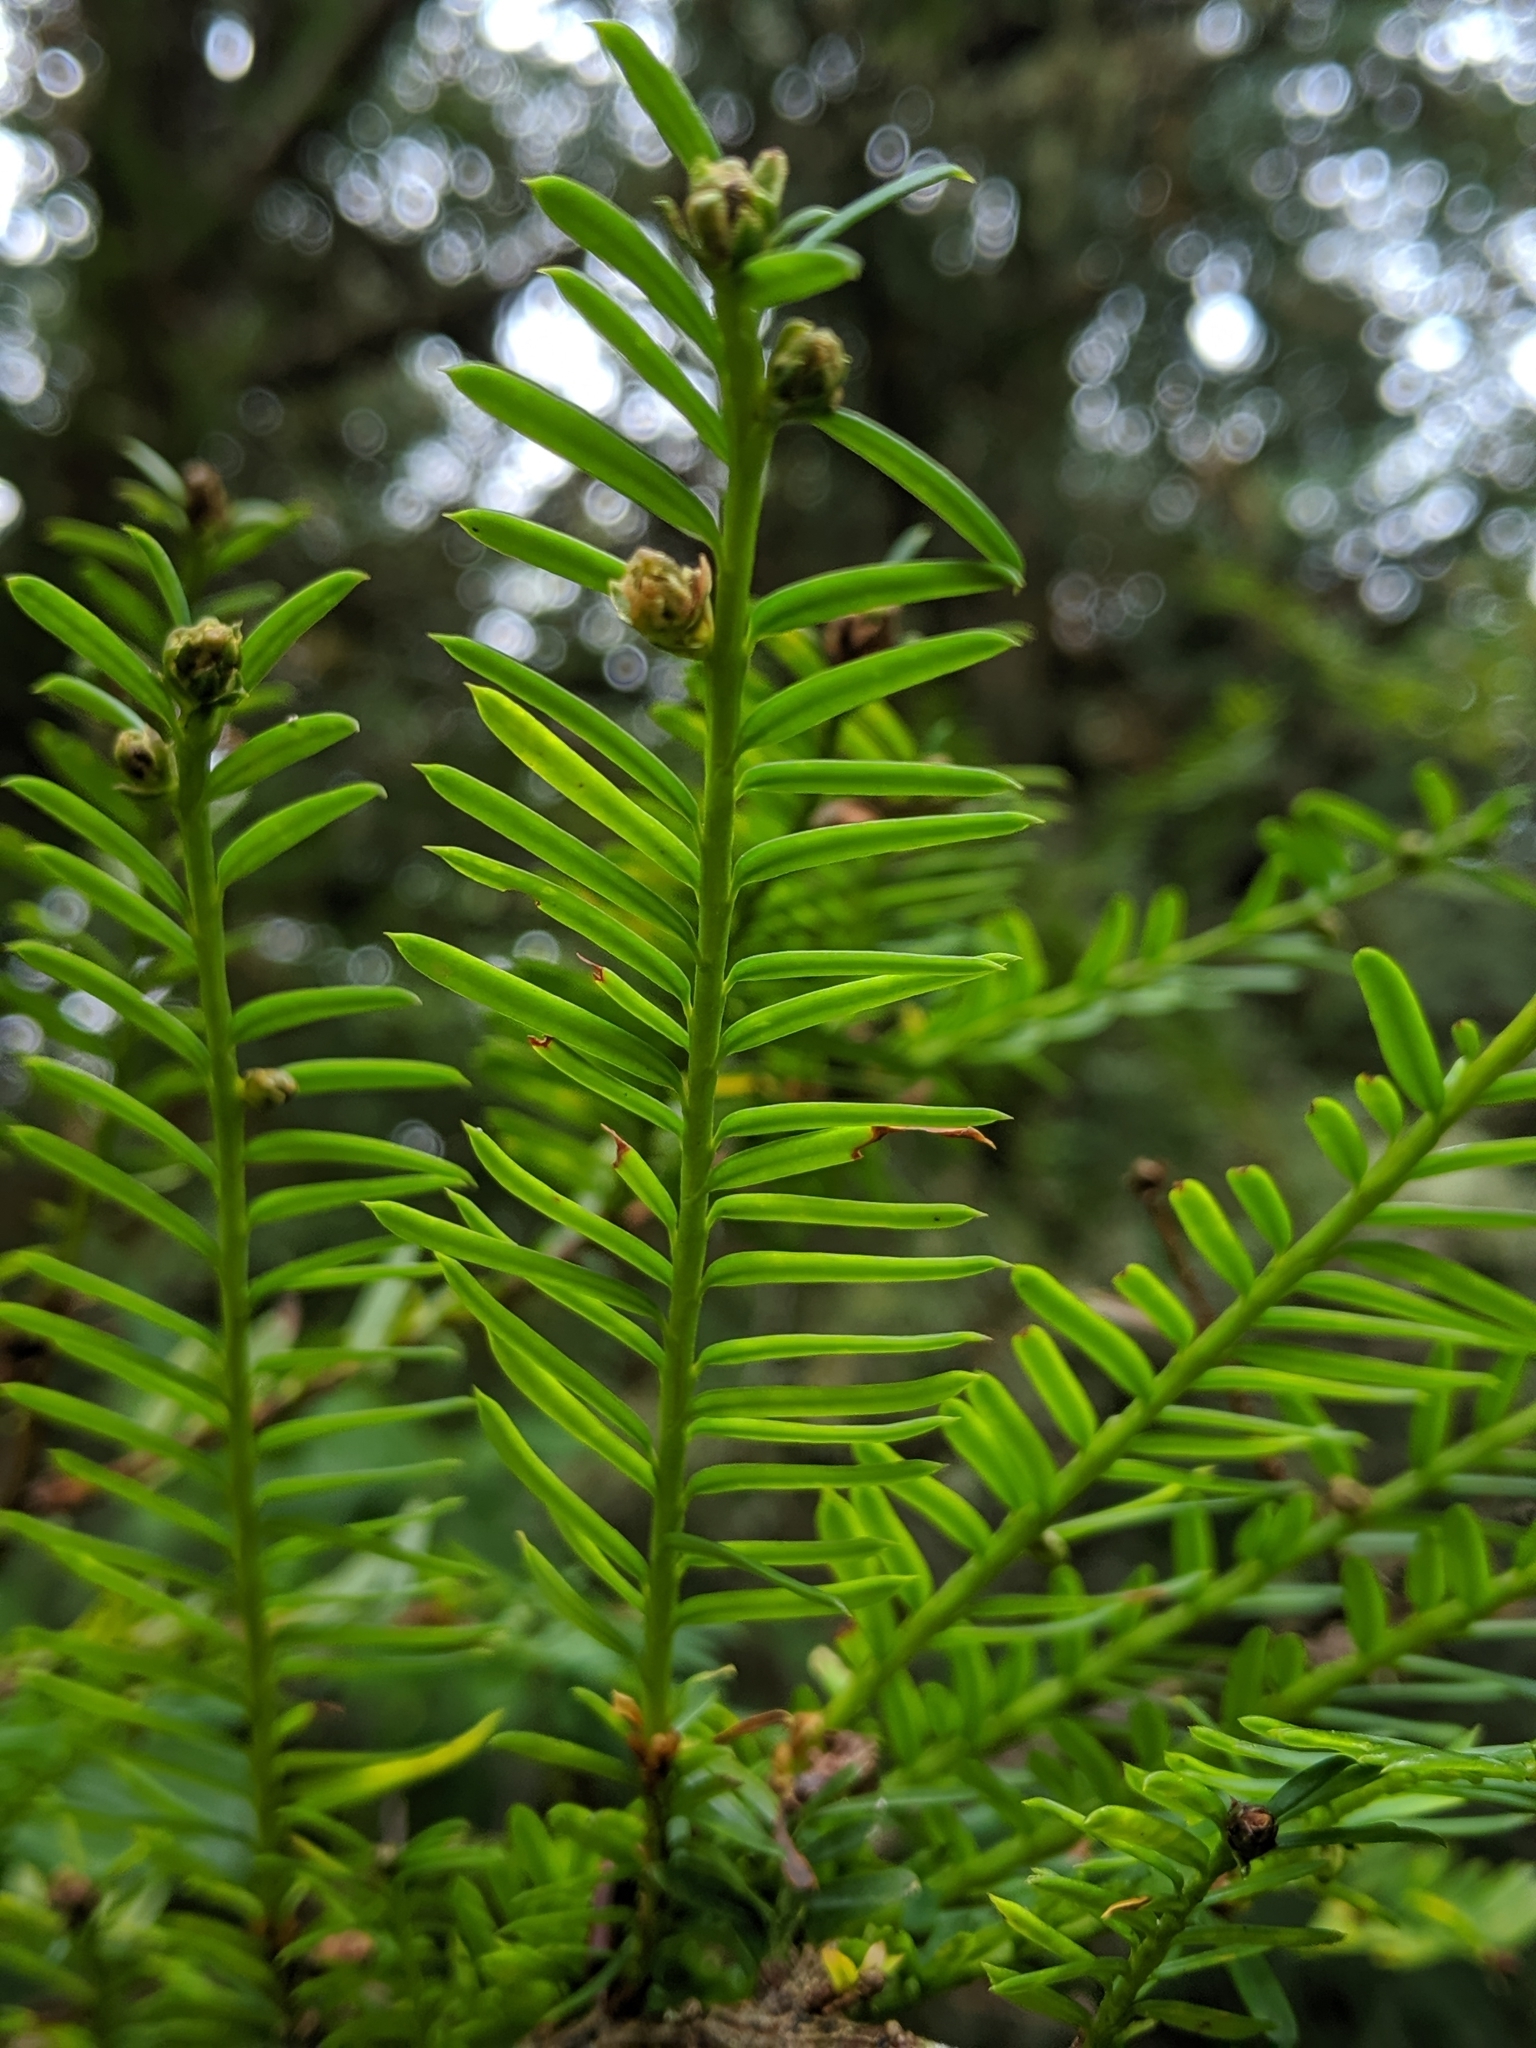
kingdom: Plantae
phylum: Tracheophyta
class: Pinopsida
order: Pinales
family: Taxaceae
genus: Taxus
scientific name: Taxus brevifolia
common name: Pacific yew
